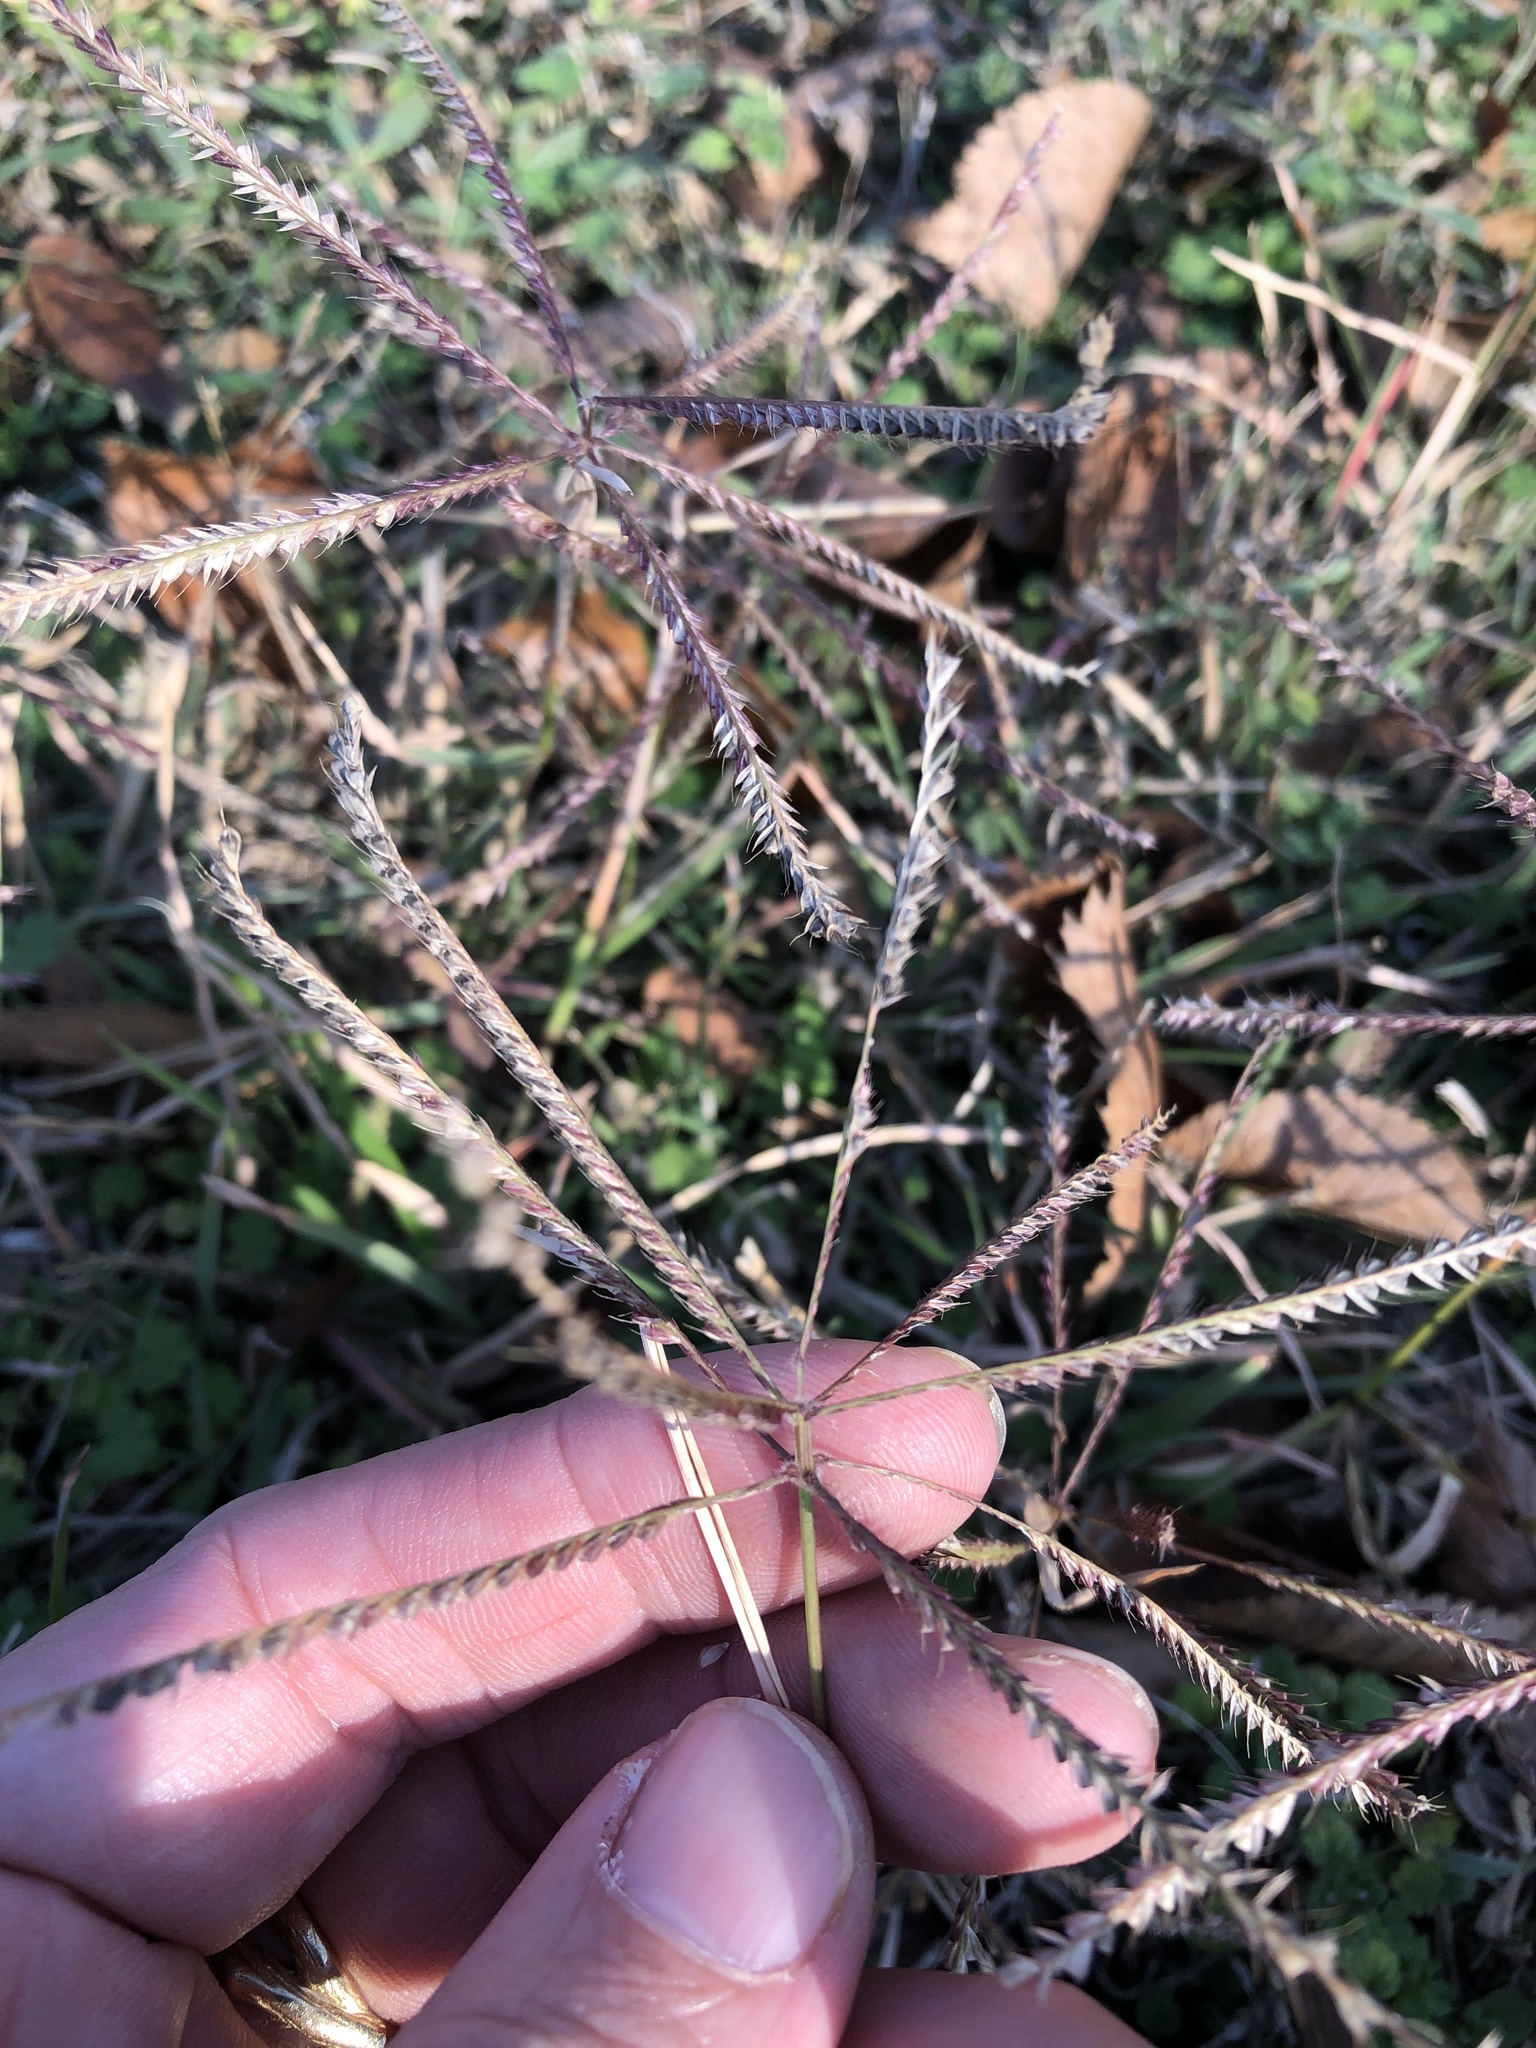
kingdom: Plantae
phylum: Tracheophyta
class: Liliopsida
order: Poales
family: Poaceae
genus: Chloris
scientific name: Chloris verticillata
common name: Tumble windmill grass
